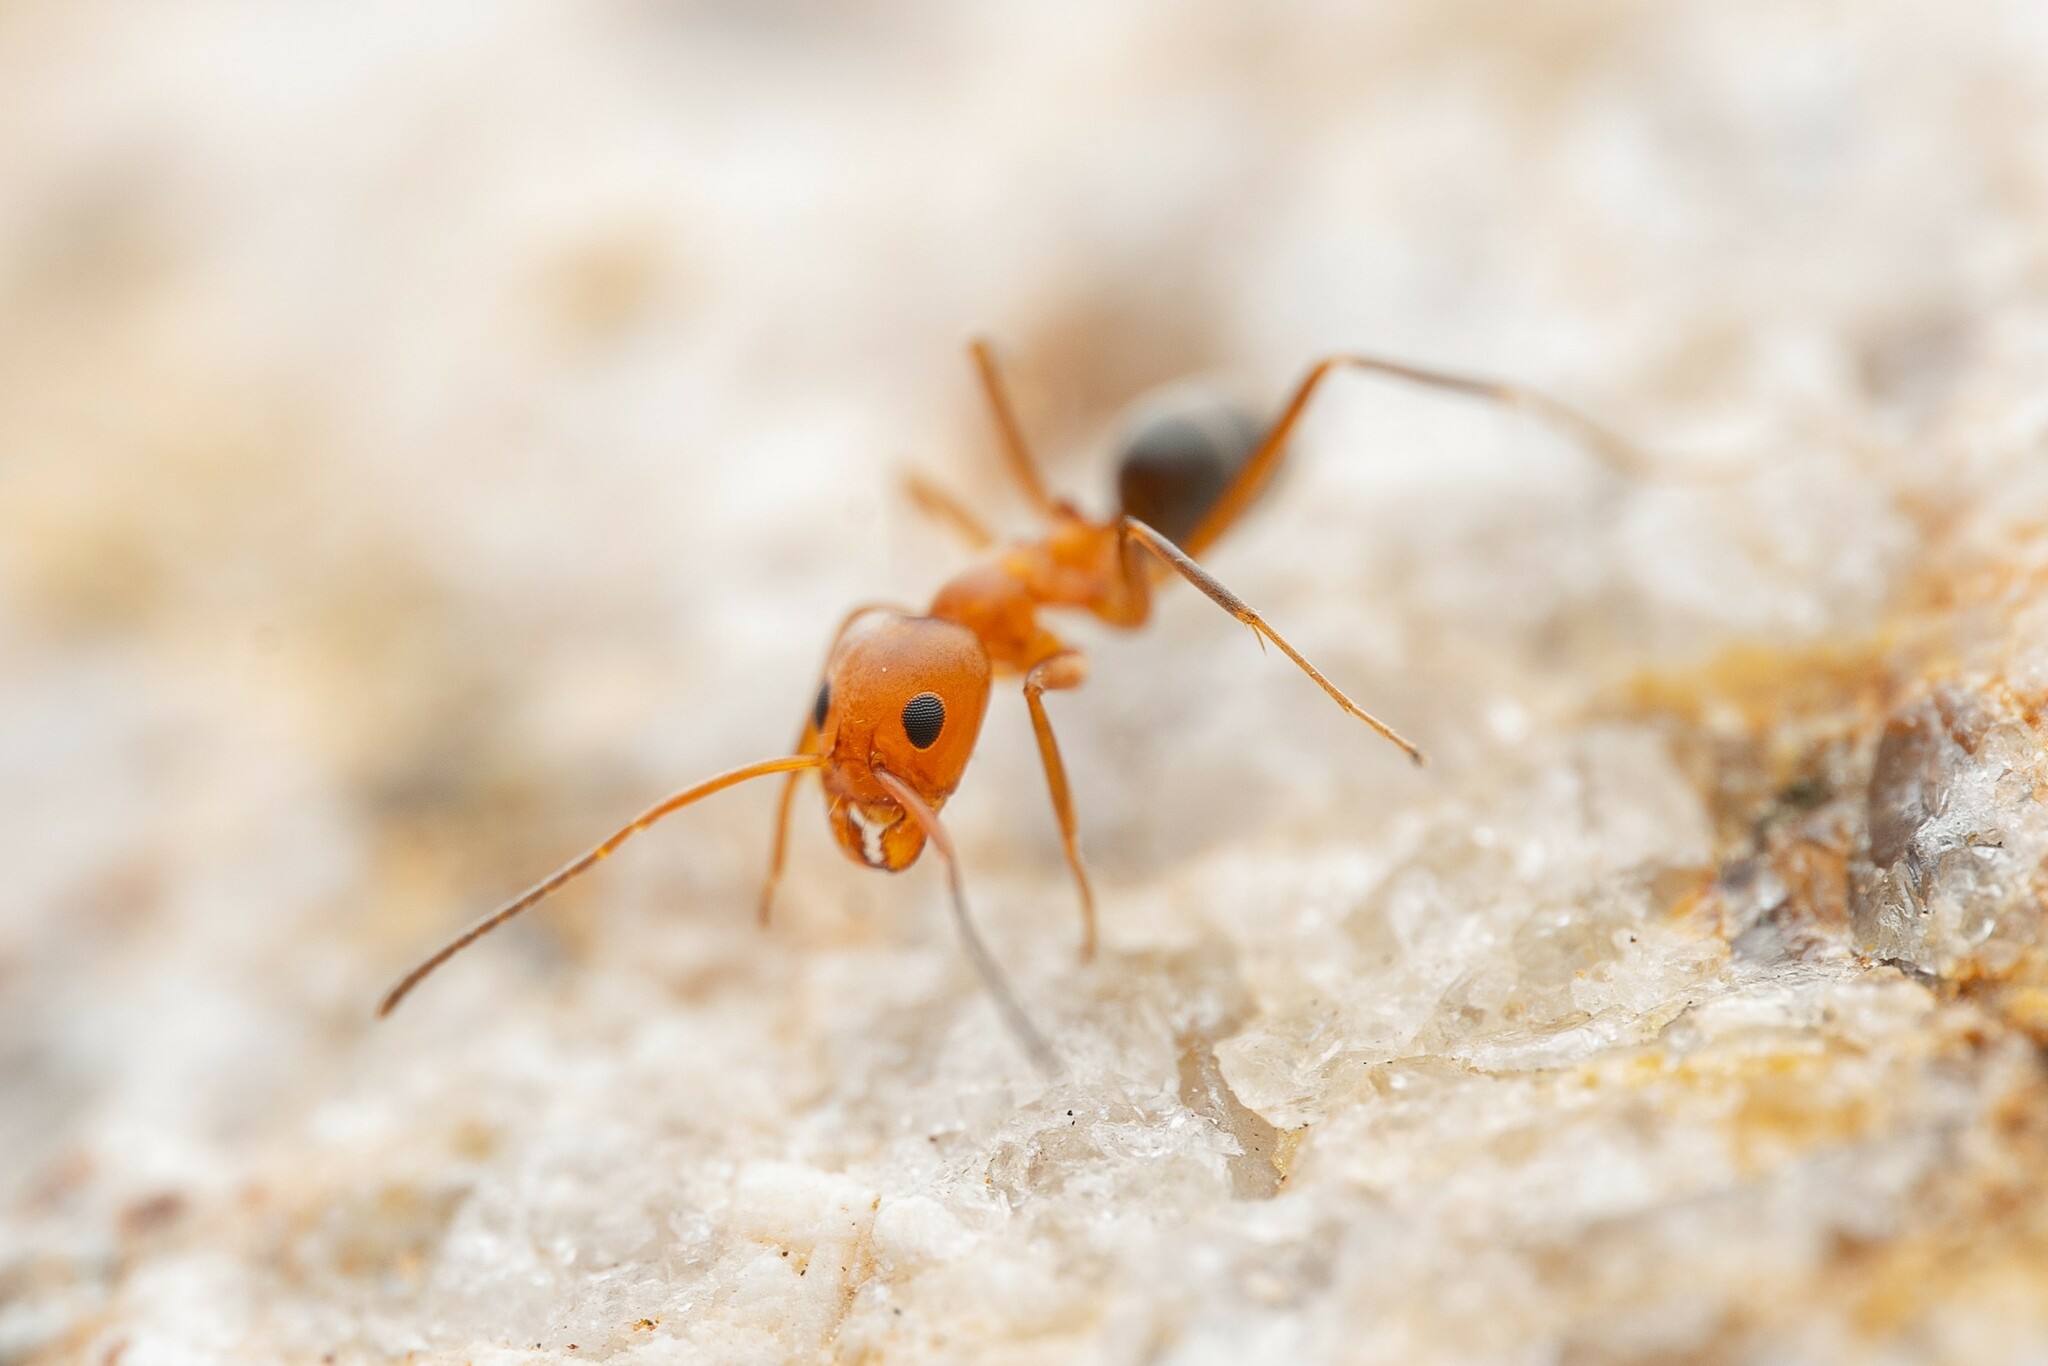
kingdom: Animalia
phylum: Arthropoda
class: Insecta
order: Hymenoptera
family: Formicidae
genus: Dorymyrmex
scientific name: Dorymyrmex bicolor
